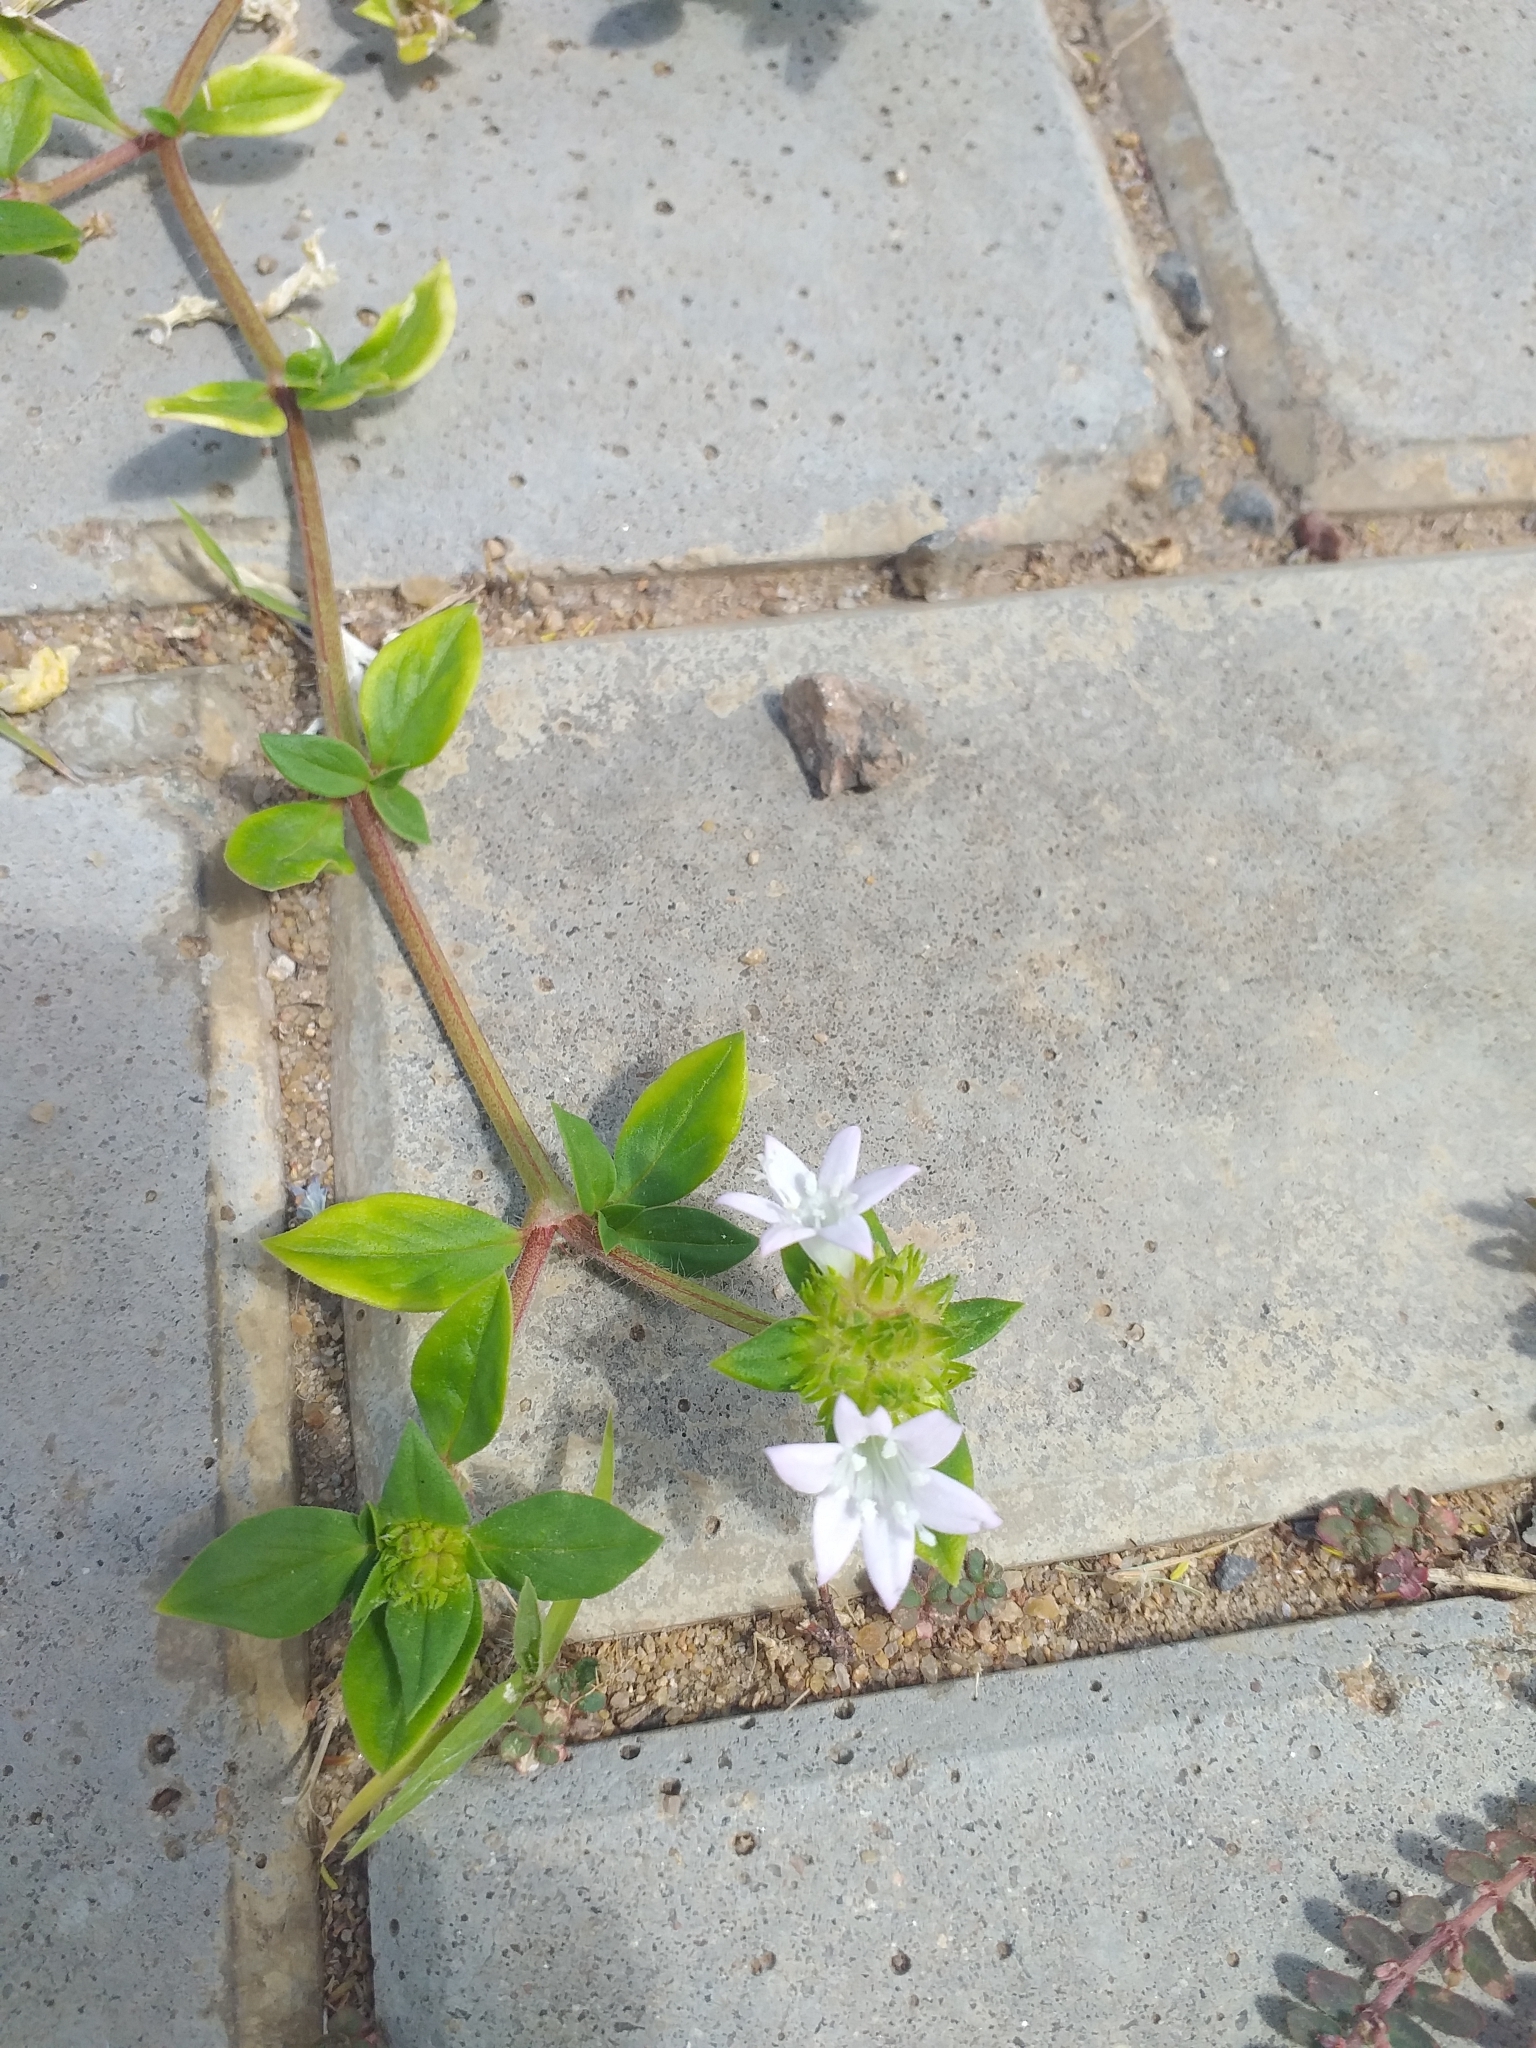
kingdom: Plantae
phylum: Tracheophyta
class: Magnoliopsida
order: Gentianales
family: Rubiaceae
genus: Richardia
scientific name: Richardia grandiflora
